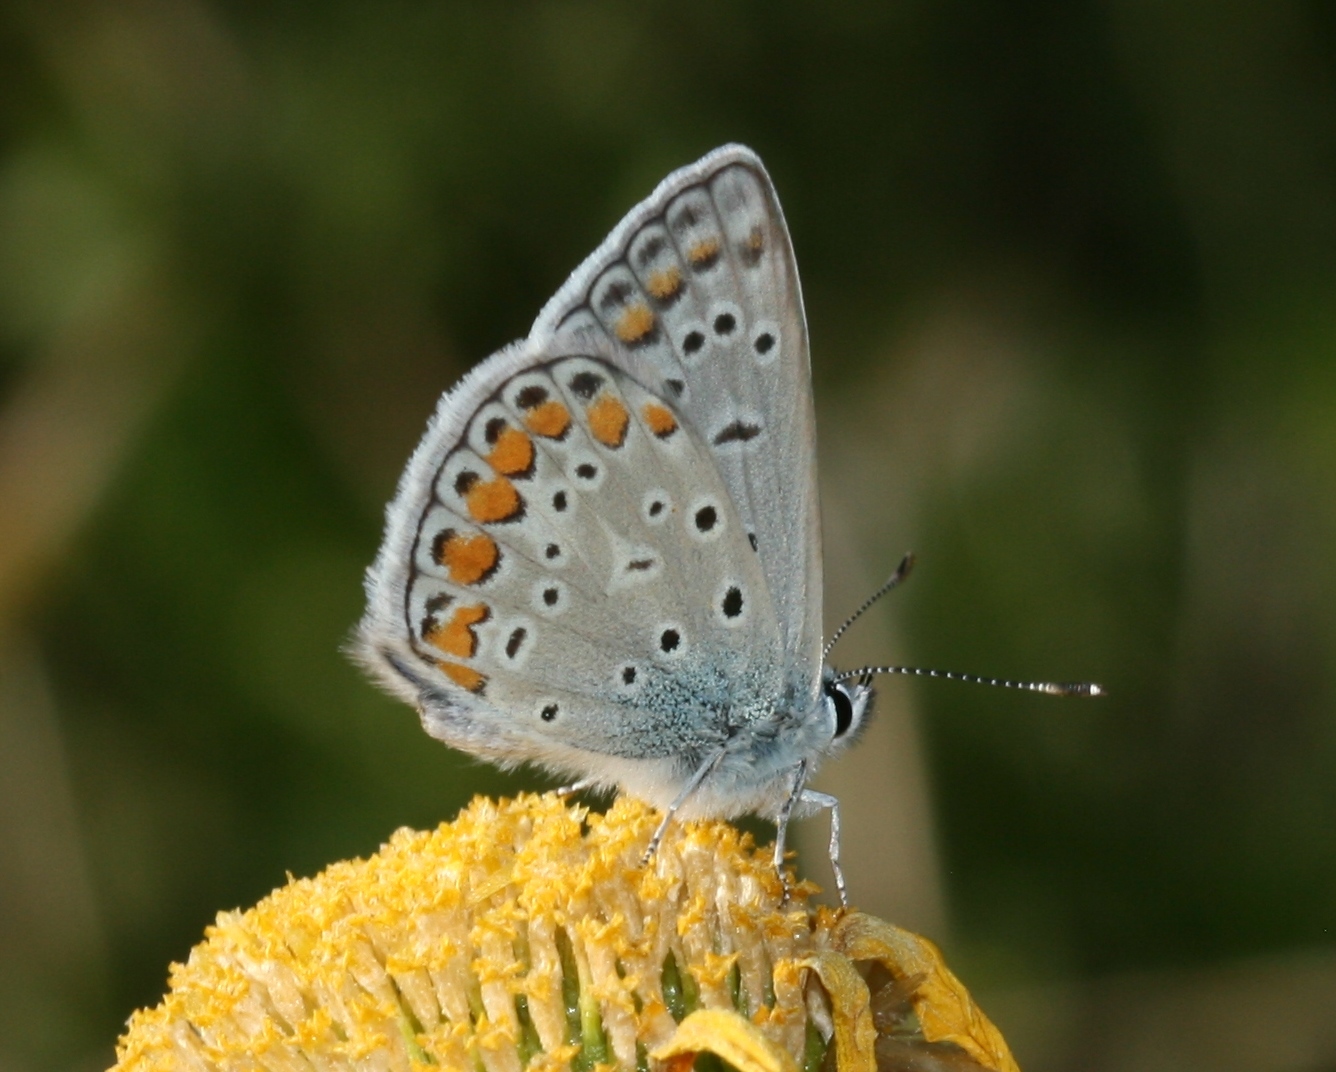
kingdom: Animalia
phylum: Arthropoda
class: Insecta
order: Lepidoptera
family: Lycaenidae
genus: Polyommatus
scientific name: Polyommatus icarus
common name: Common blue
